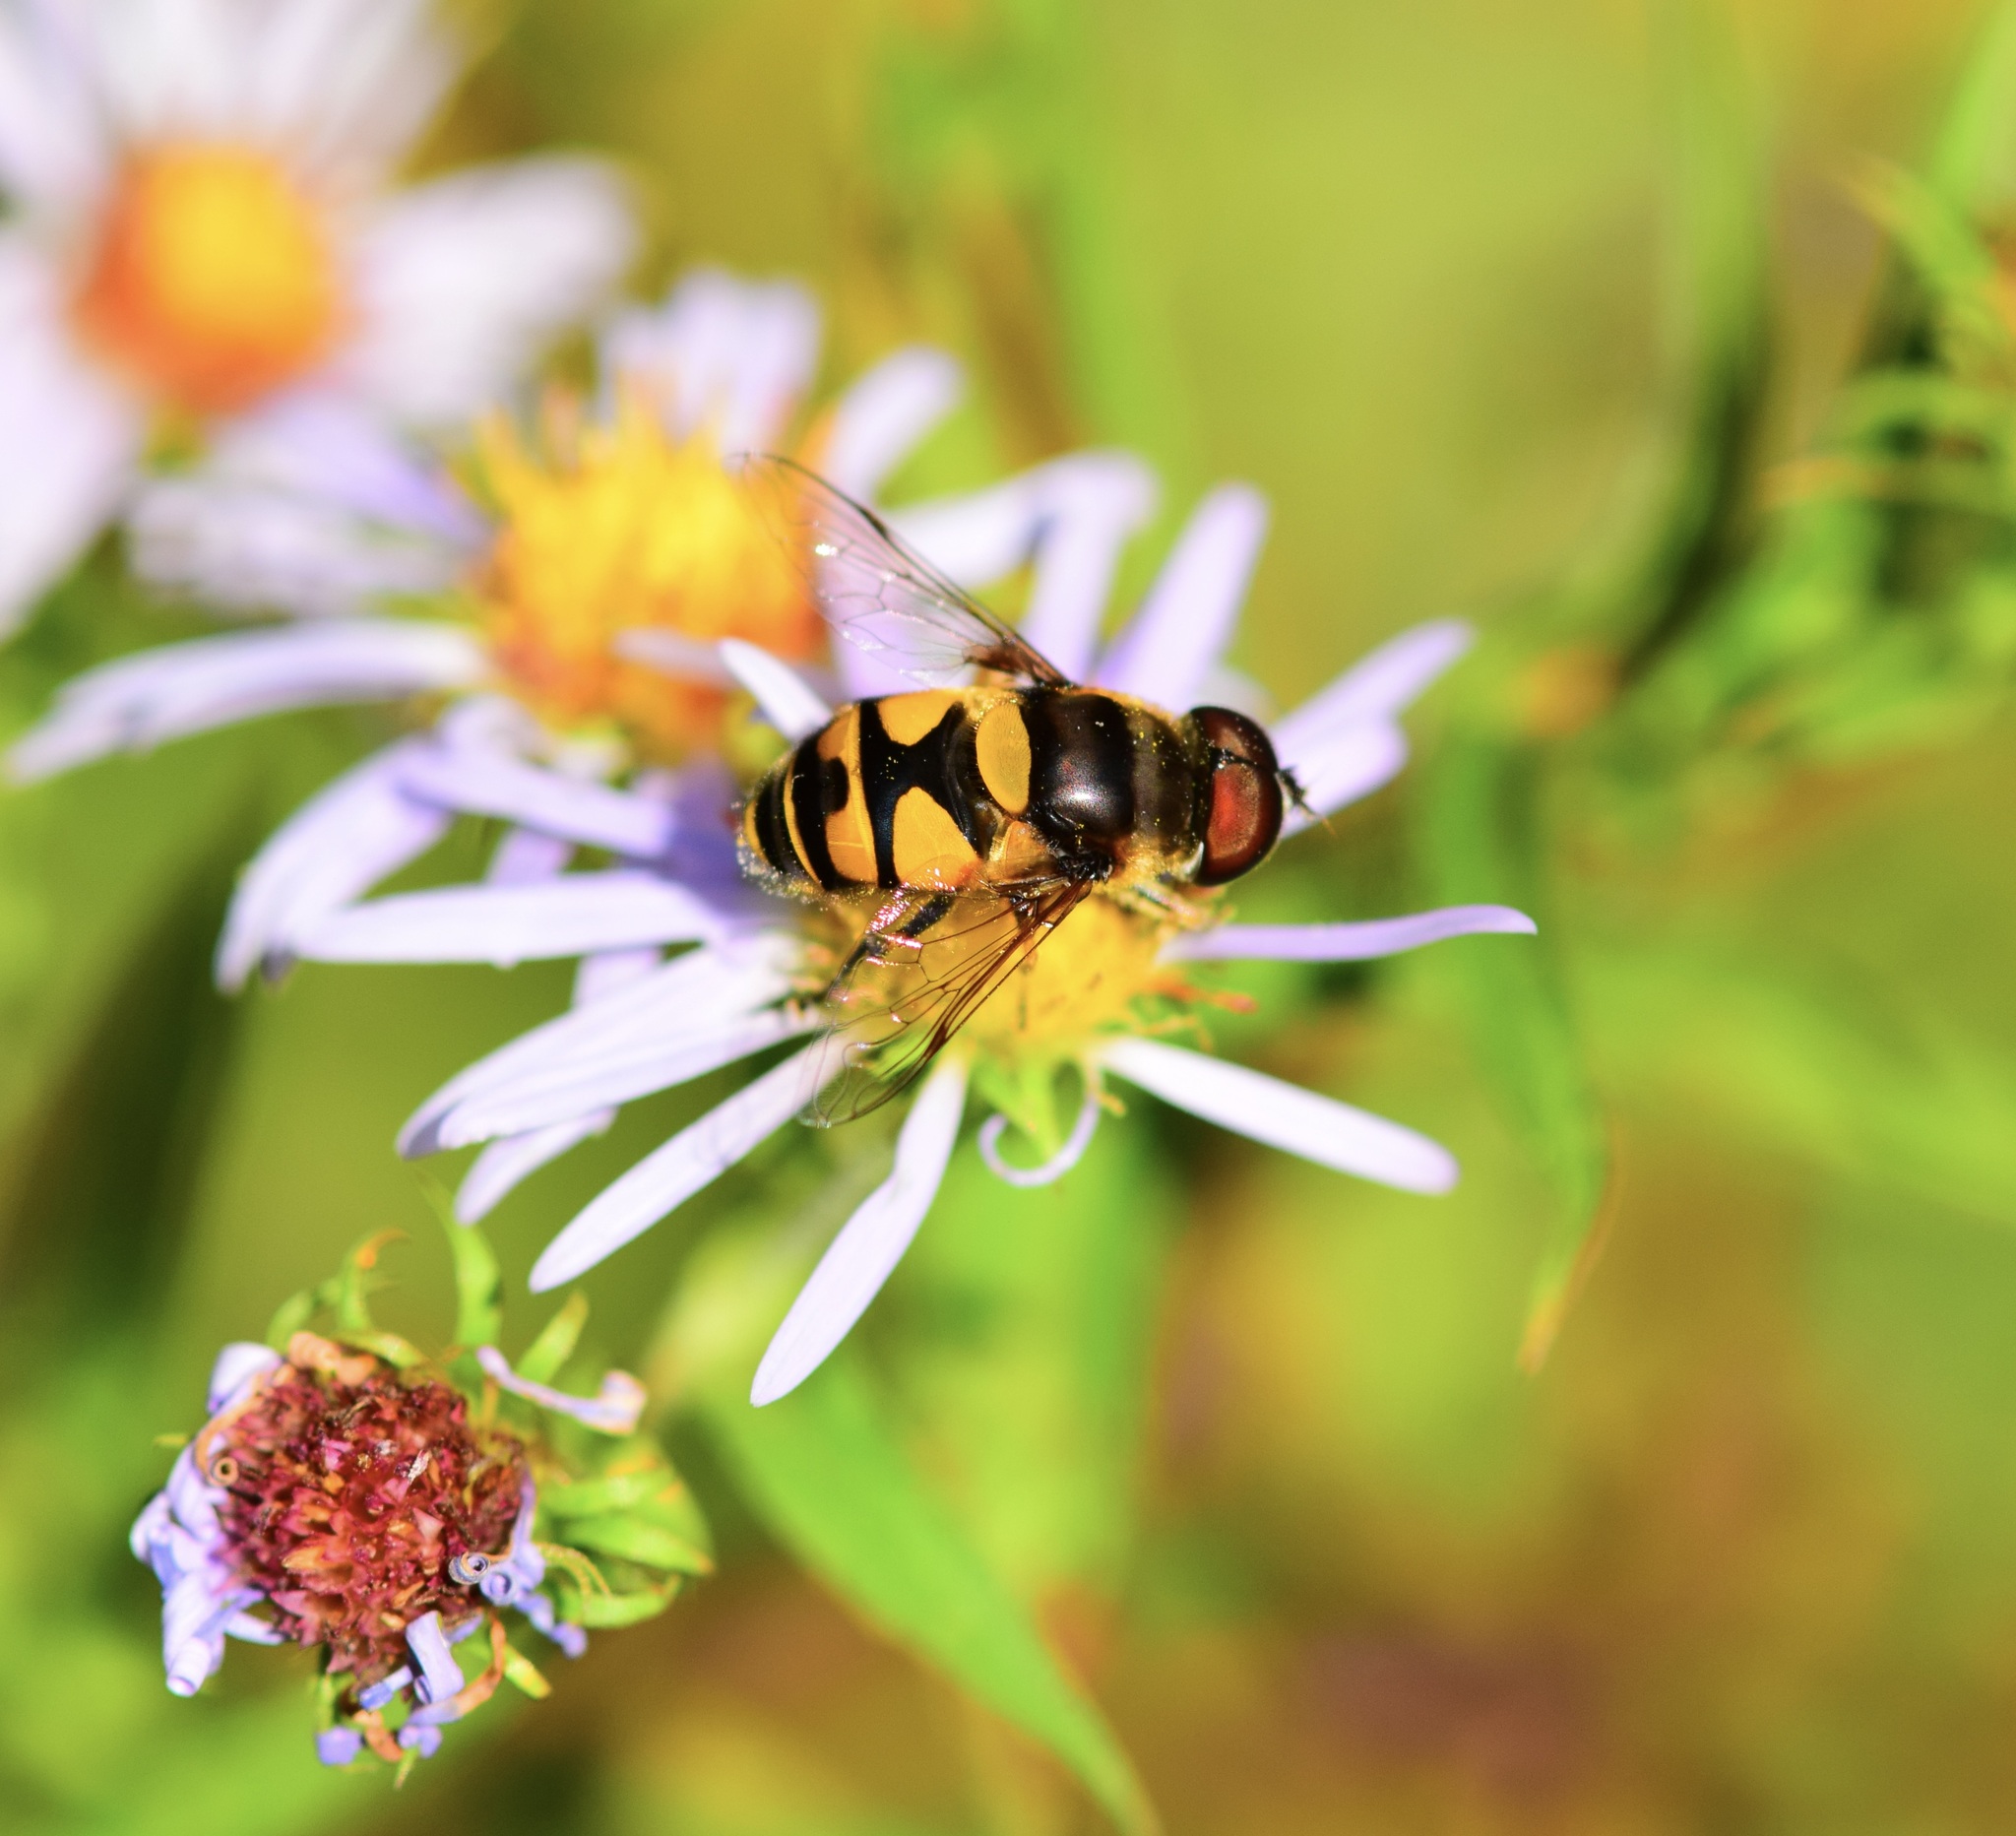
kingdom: Animalia
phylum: Arthropoda
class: Insecta
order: Diptera
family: Syrphidae
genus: Eristalis
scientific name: Eristalis transversa
